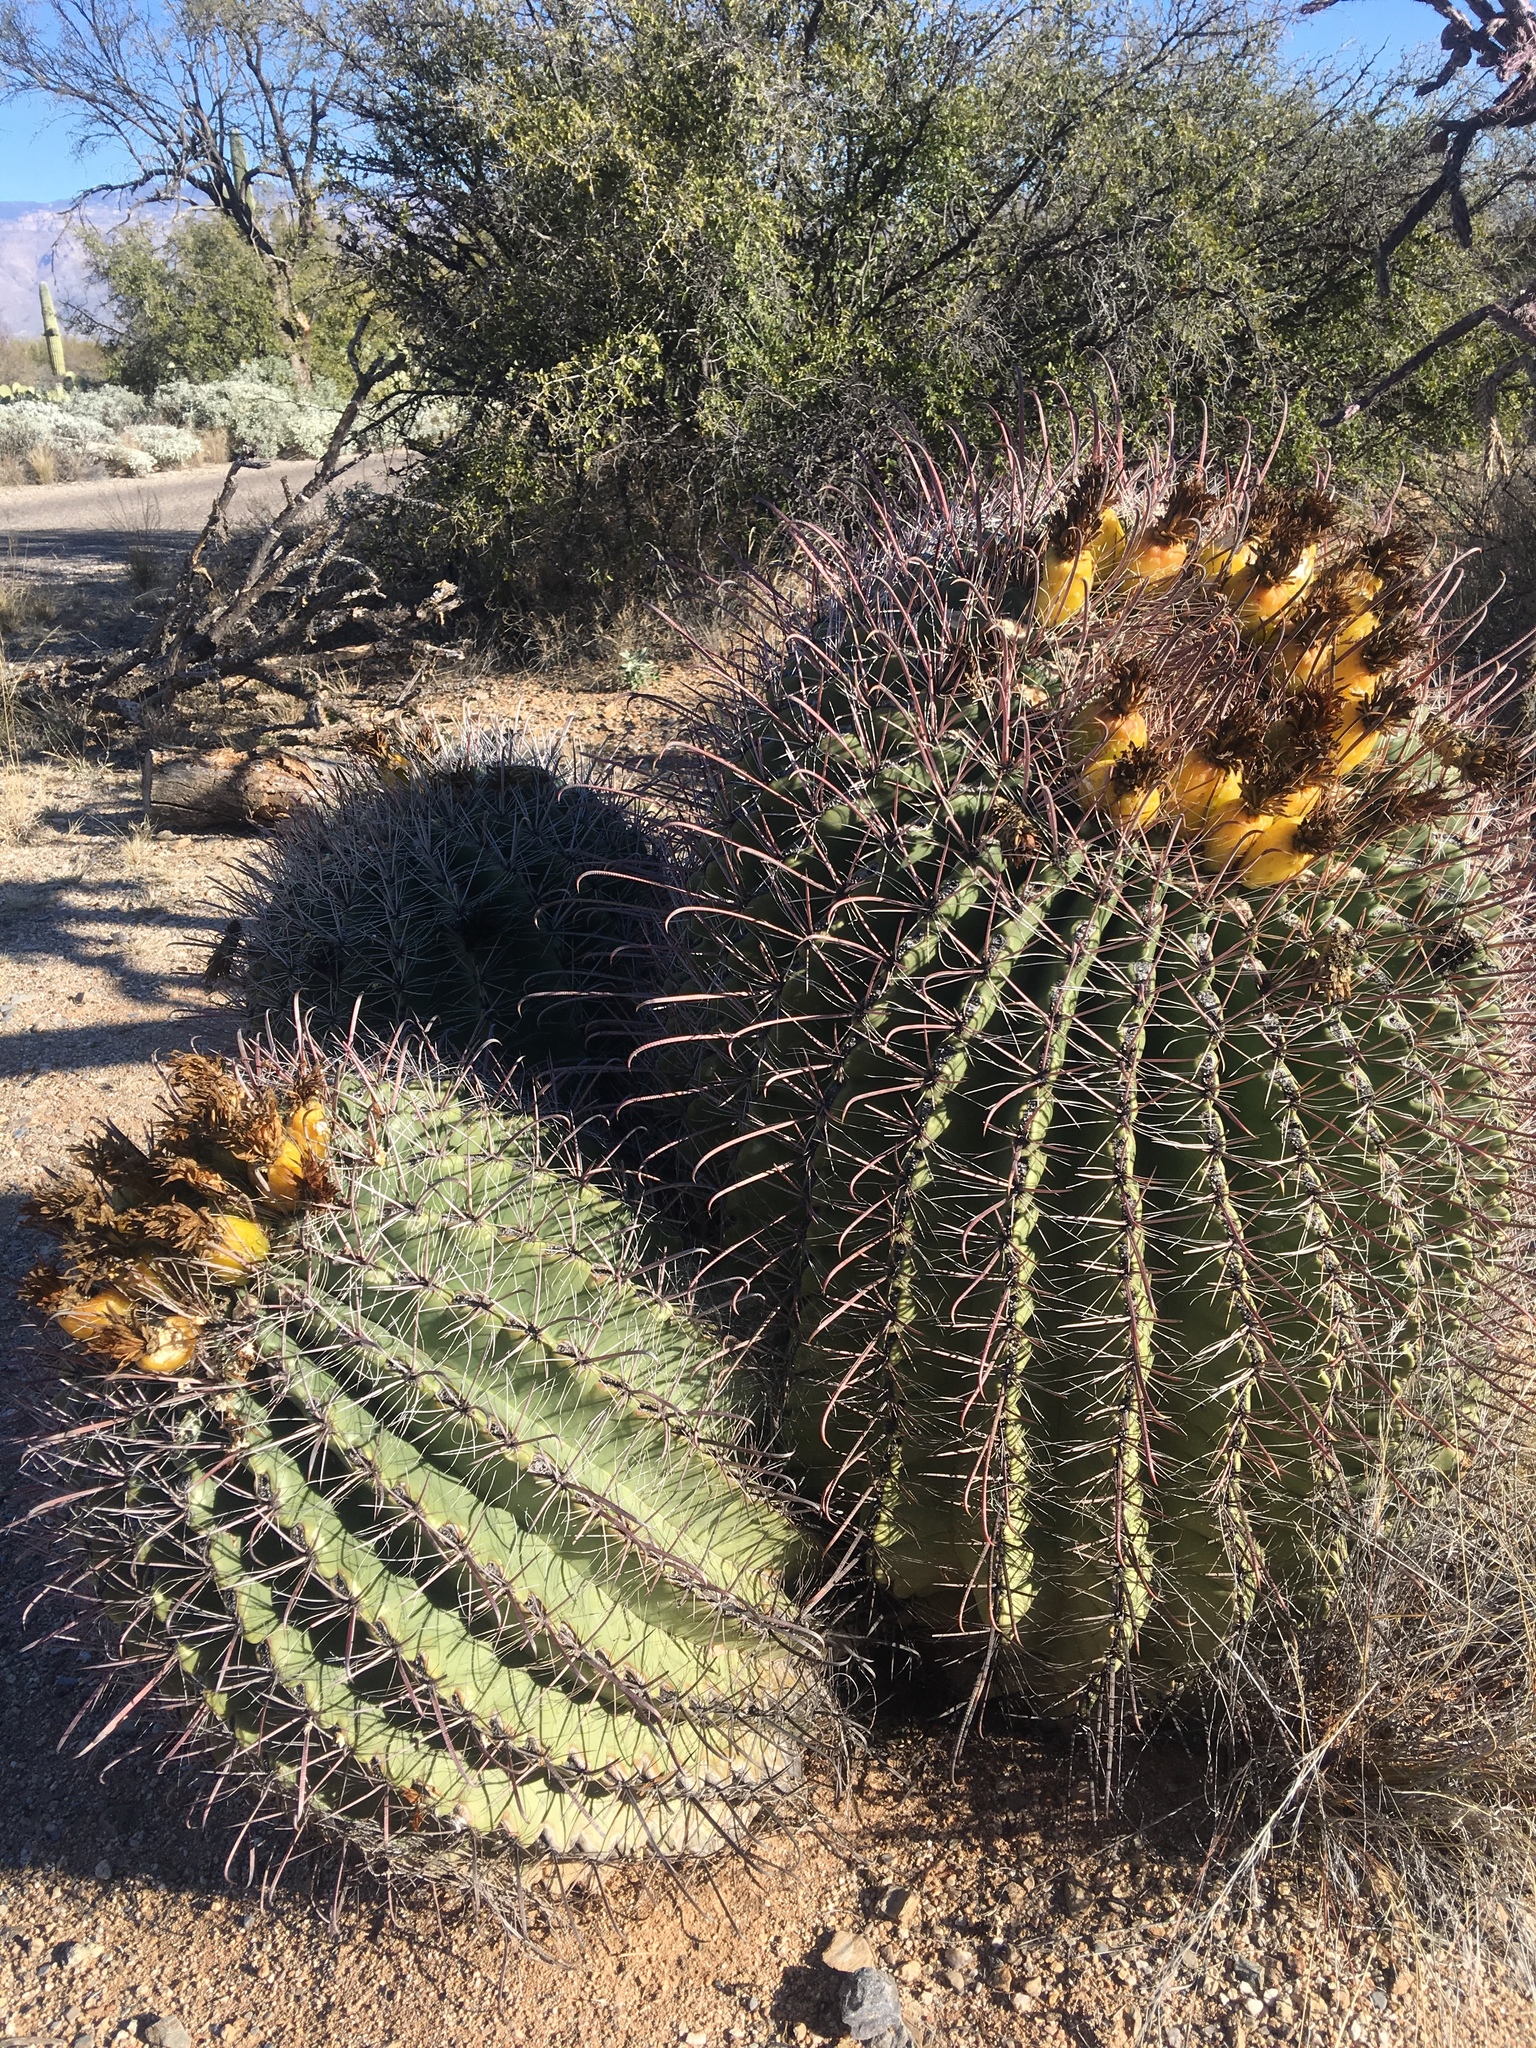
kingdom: Plantae
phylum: Tracheophyta
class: Magnoliopsida
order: Caryophyllales
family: Cactaceae
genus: Ferocactus
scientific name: Ferocactus wislizeni
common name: Candy barrel cactus
